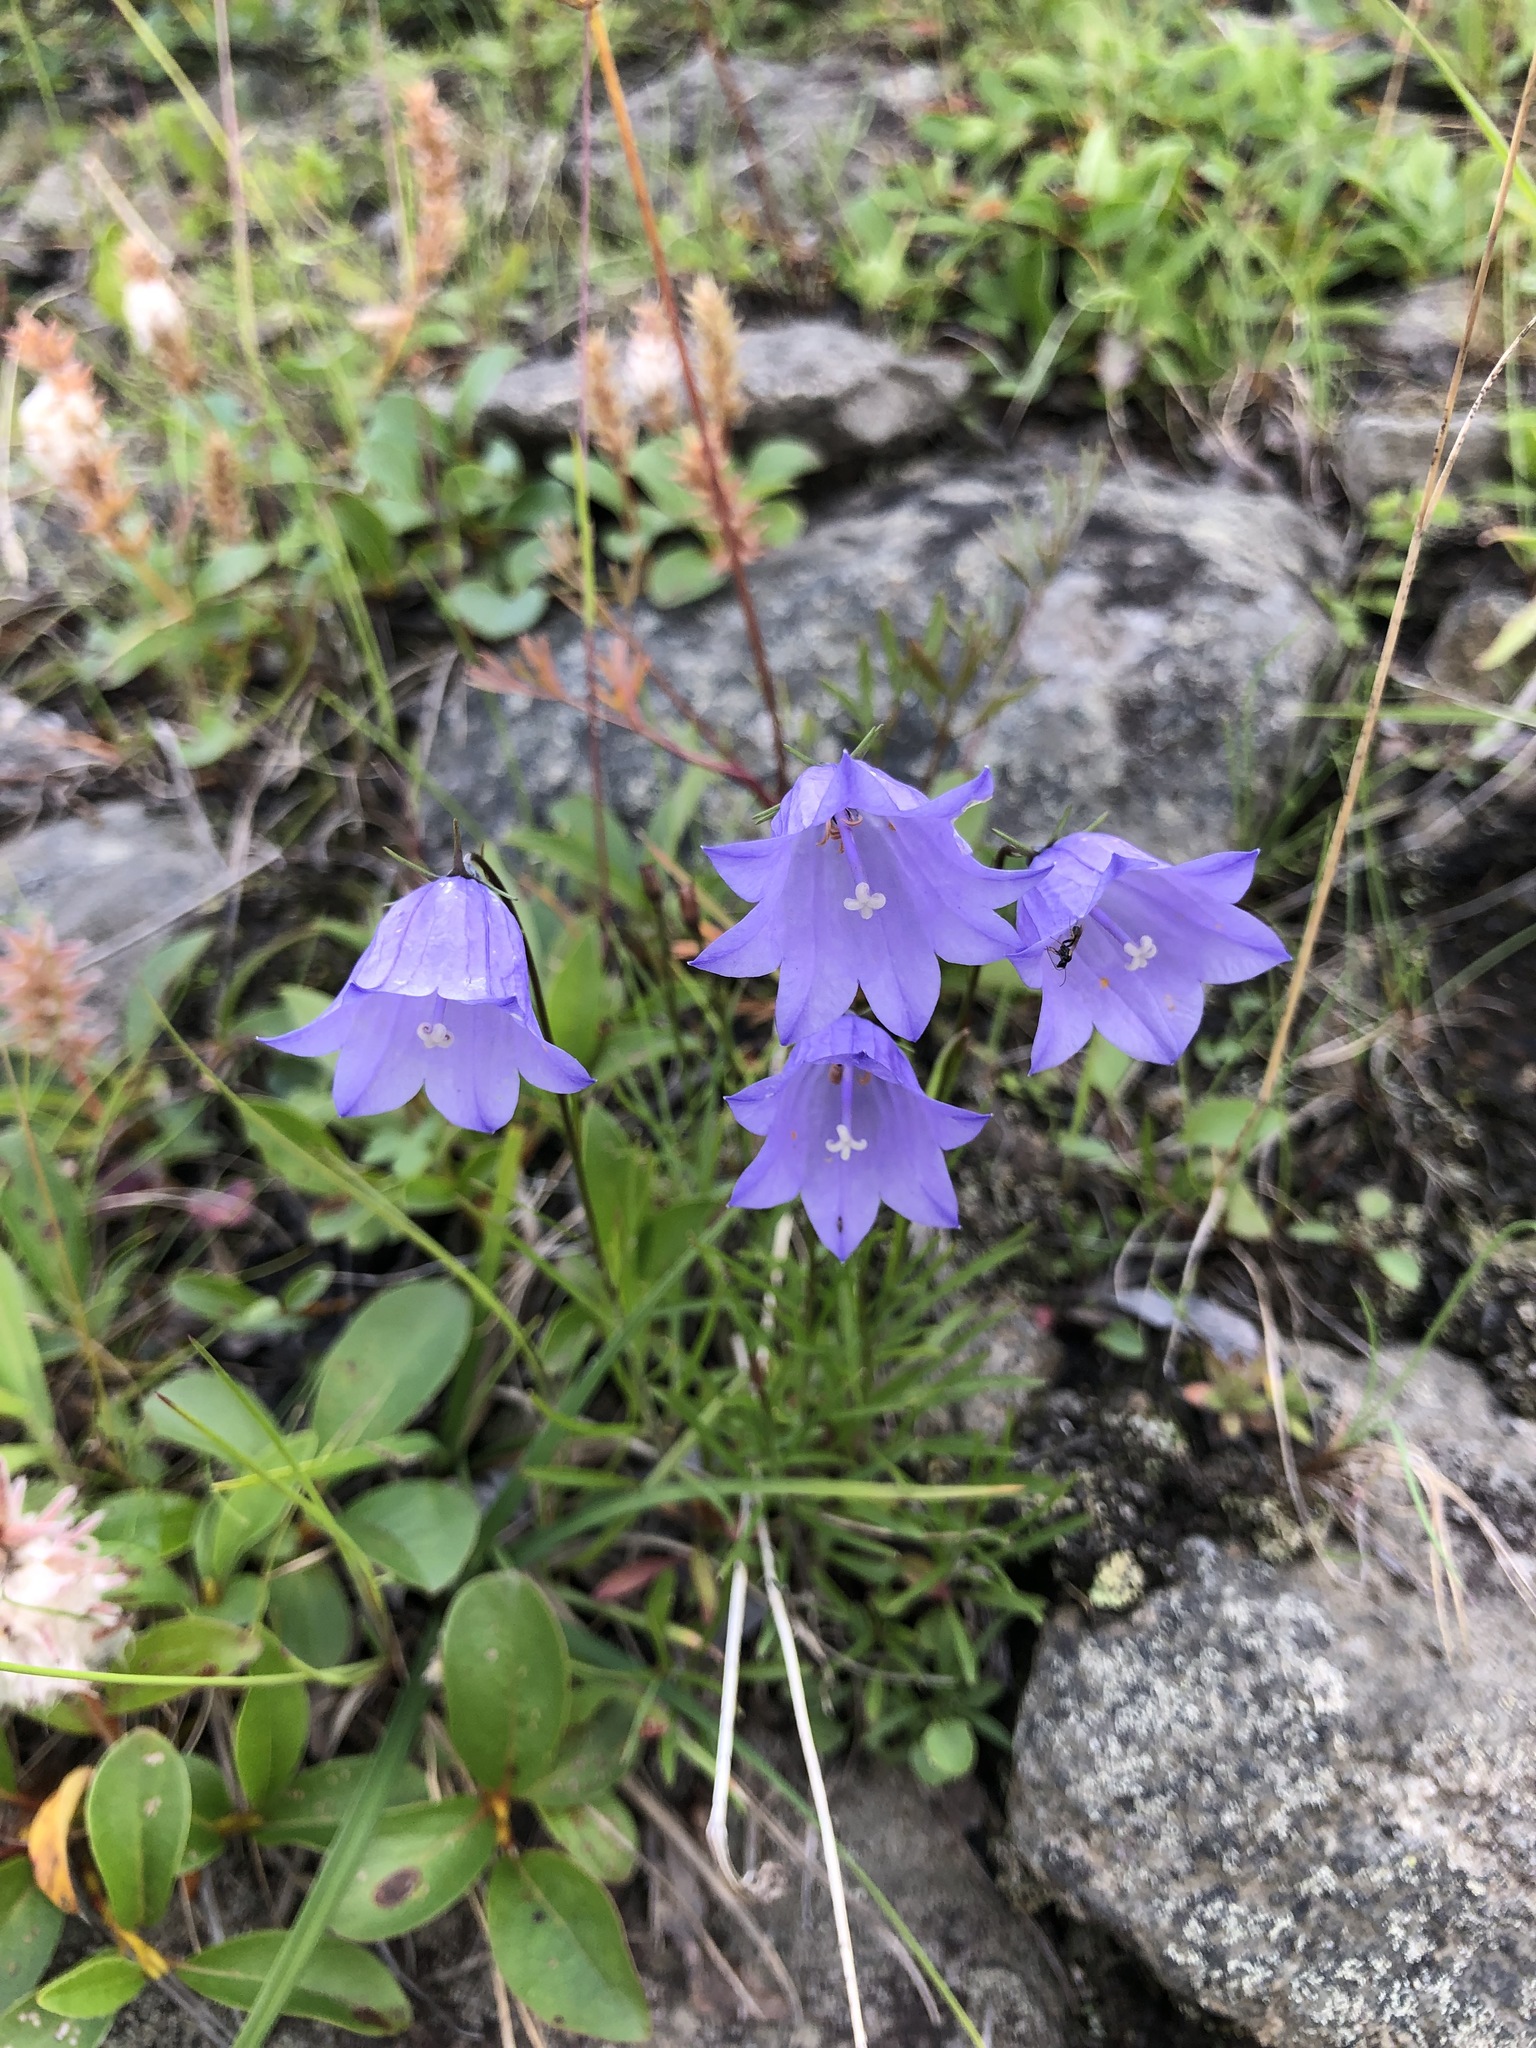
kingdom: Plantae
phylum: Tracheophyta
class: Magnoliopsida
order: Asterales
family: Campanulaceae
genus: Campanula
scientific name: Campanula rotundifolia
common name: Harebell
